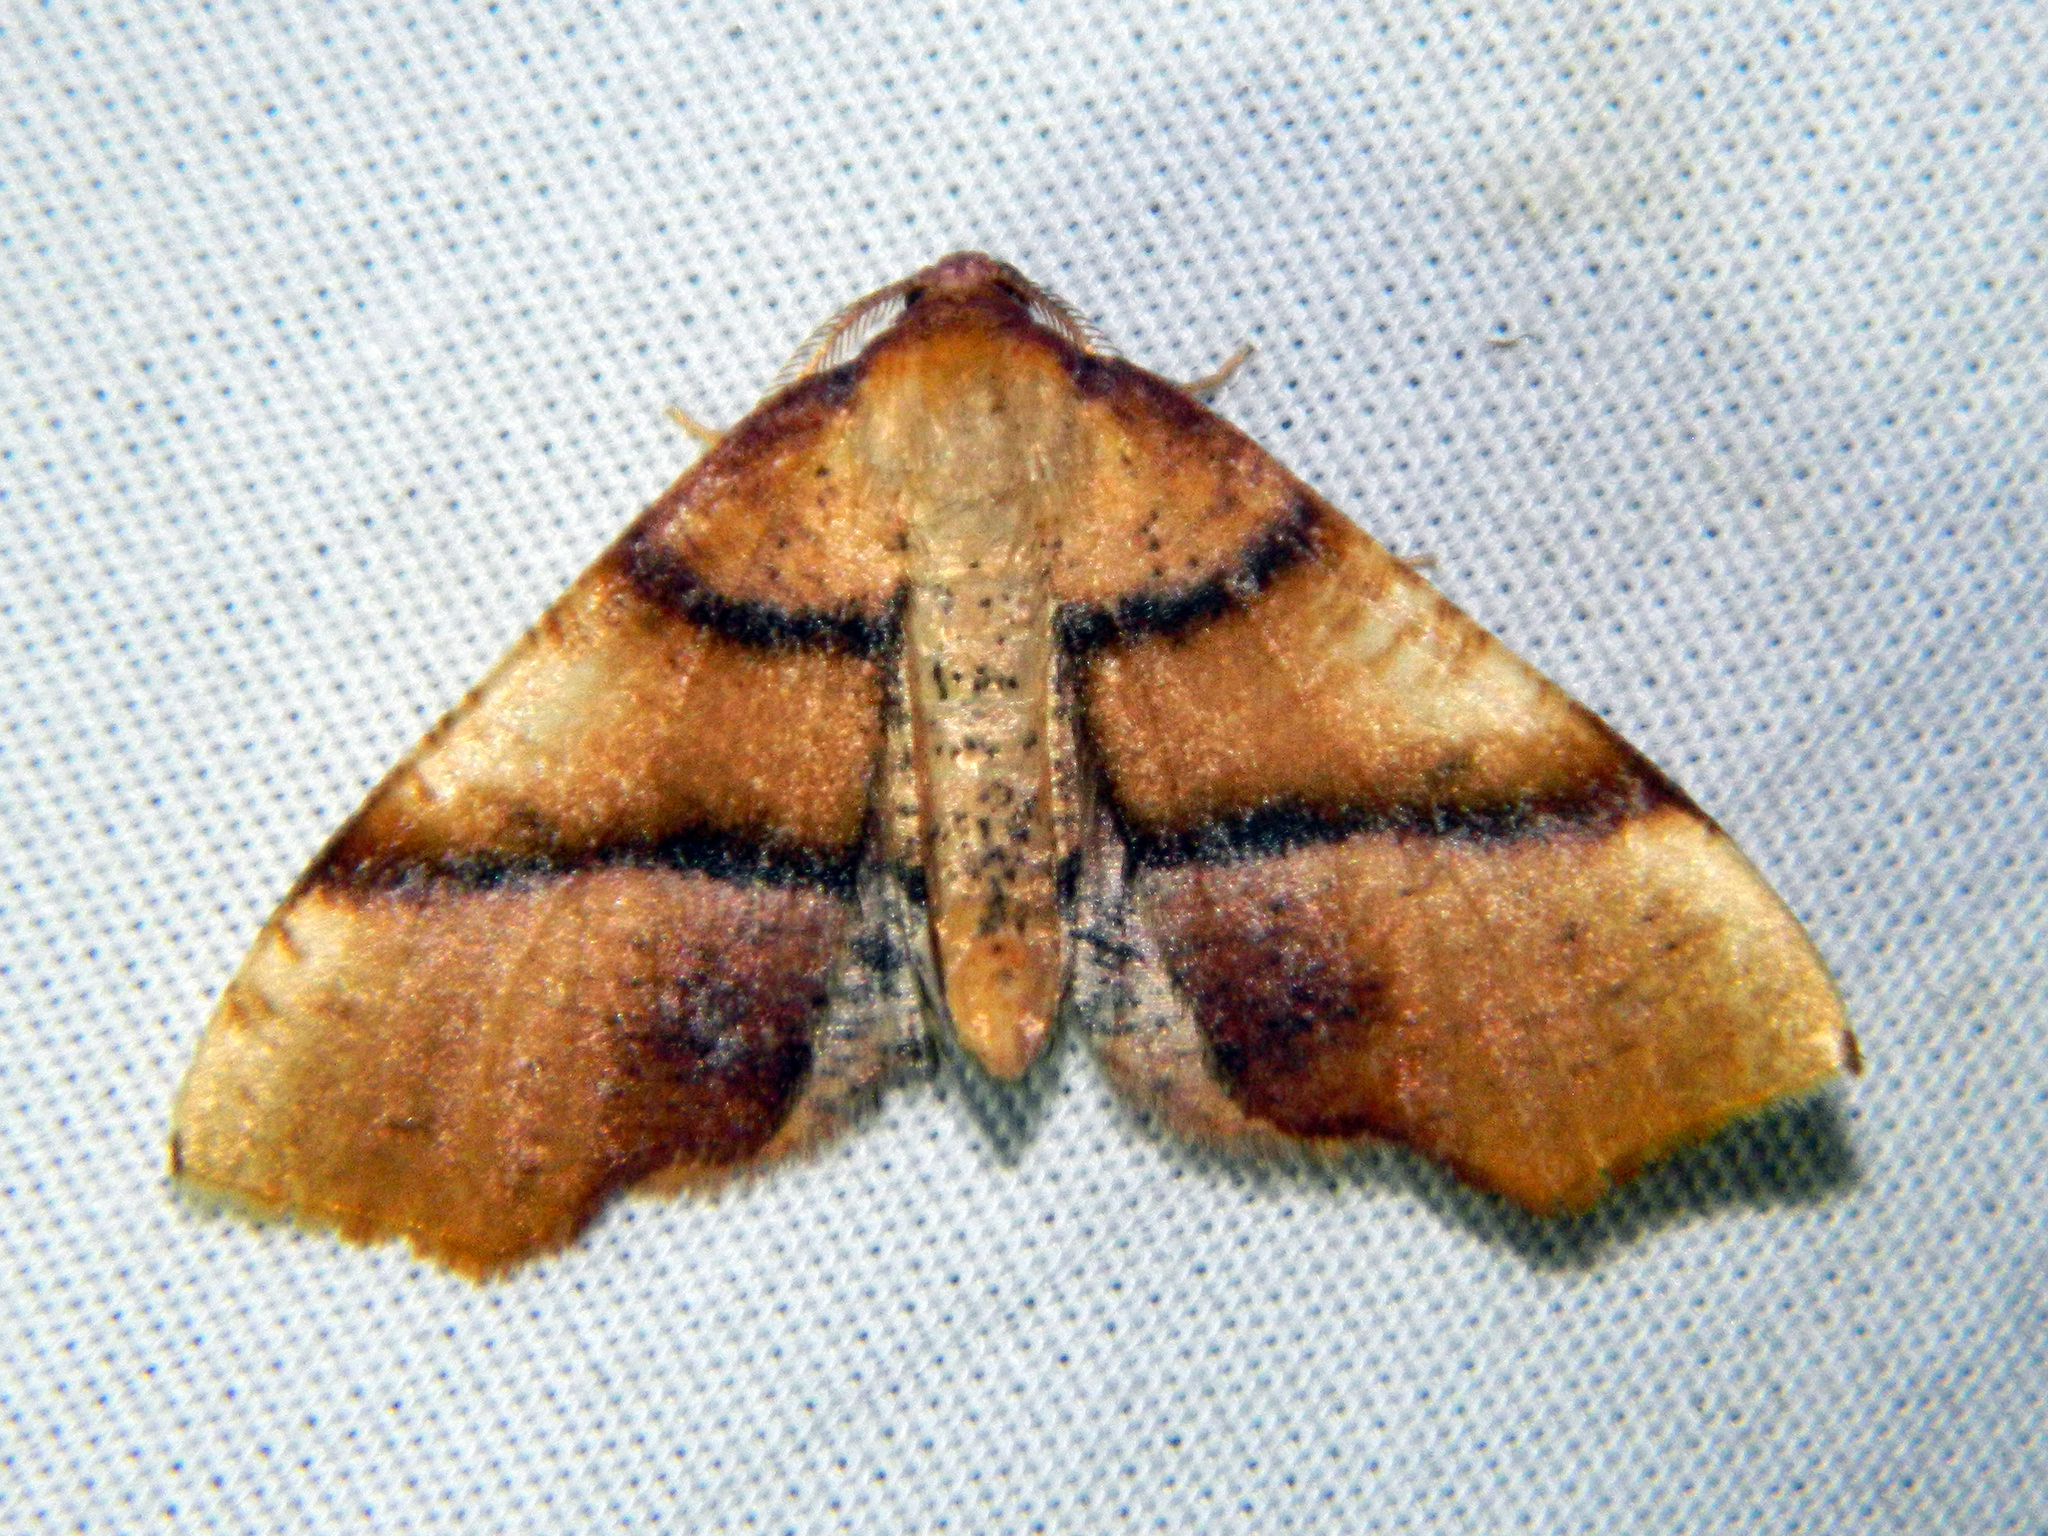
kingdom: Animalia
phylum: Arthropoda
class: Insecta
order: Lepidoptera
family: Geometridae
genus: Plagodis
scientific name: Plagodis phlogosaria
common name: Straight-lined plagodis
